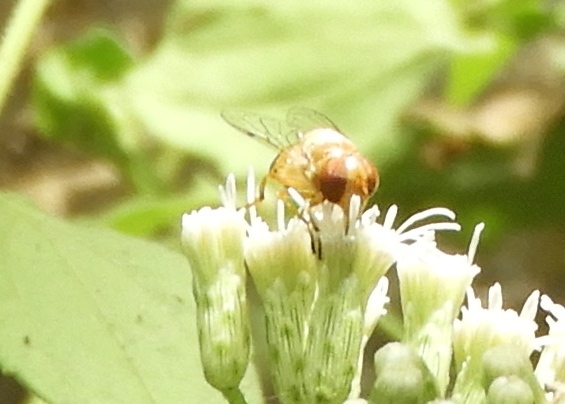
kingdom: Animalia
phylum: Arthropoda
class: Insecta
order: Diptera
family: Syrphidae
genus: Copestylum
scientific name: Copestylum
